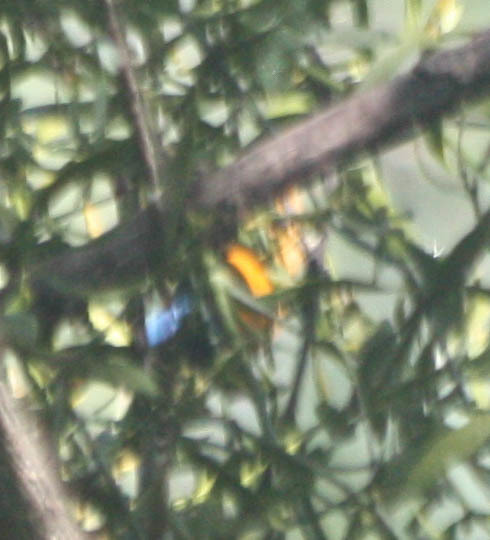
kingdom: Animalia
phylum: Chordata
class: Aves
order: Passeriformes
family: Fringillidae
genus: Euphonia
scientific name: Euphonia elegantissima
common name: Elegant euphonia
